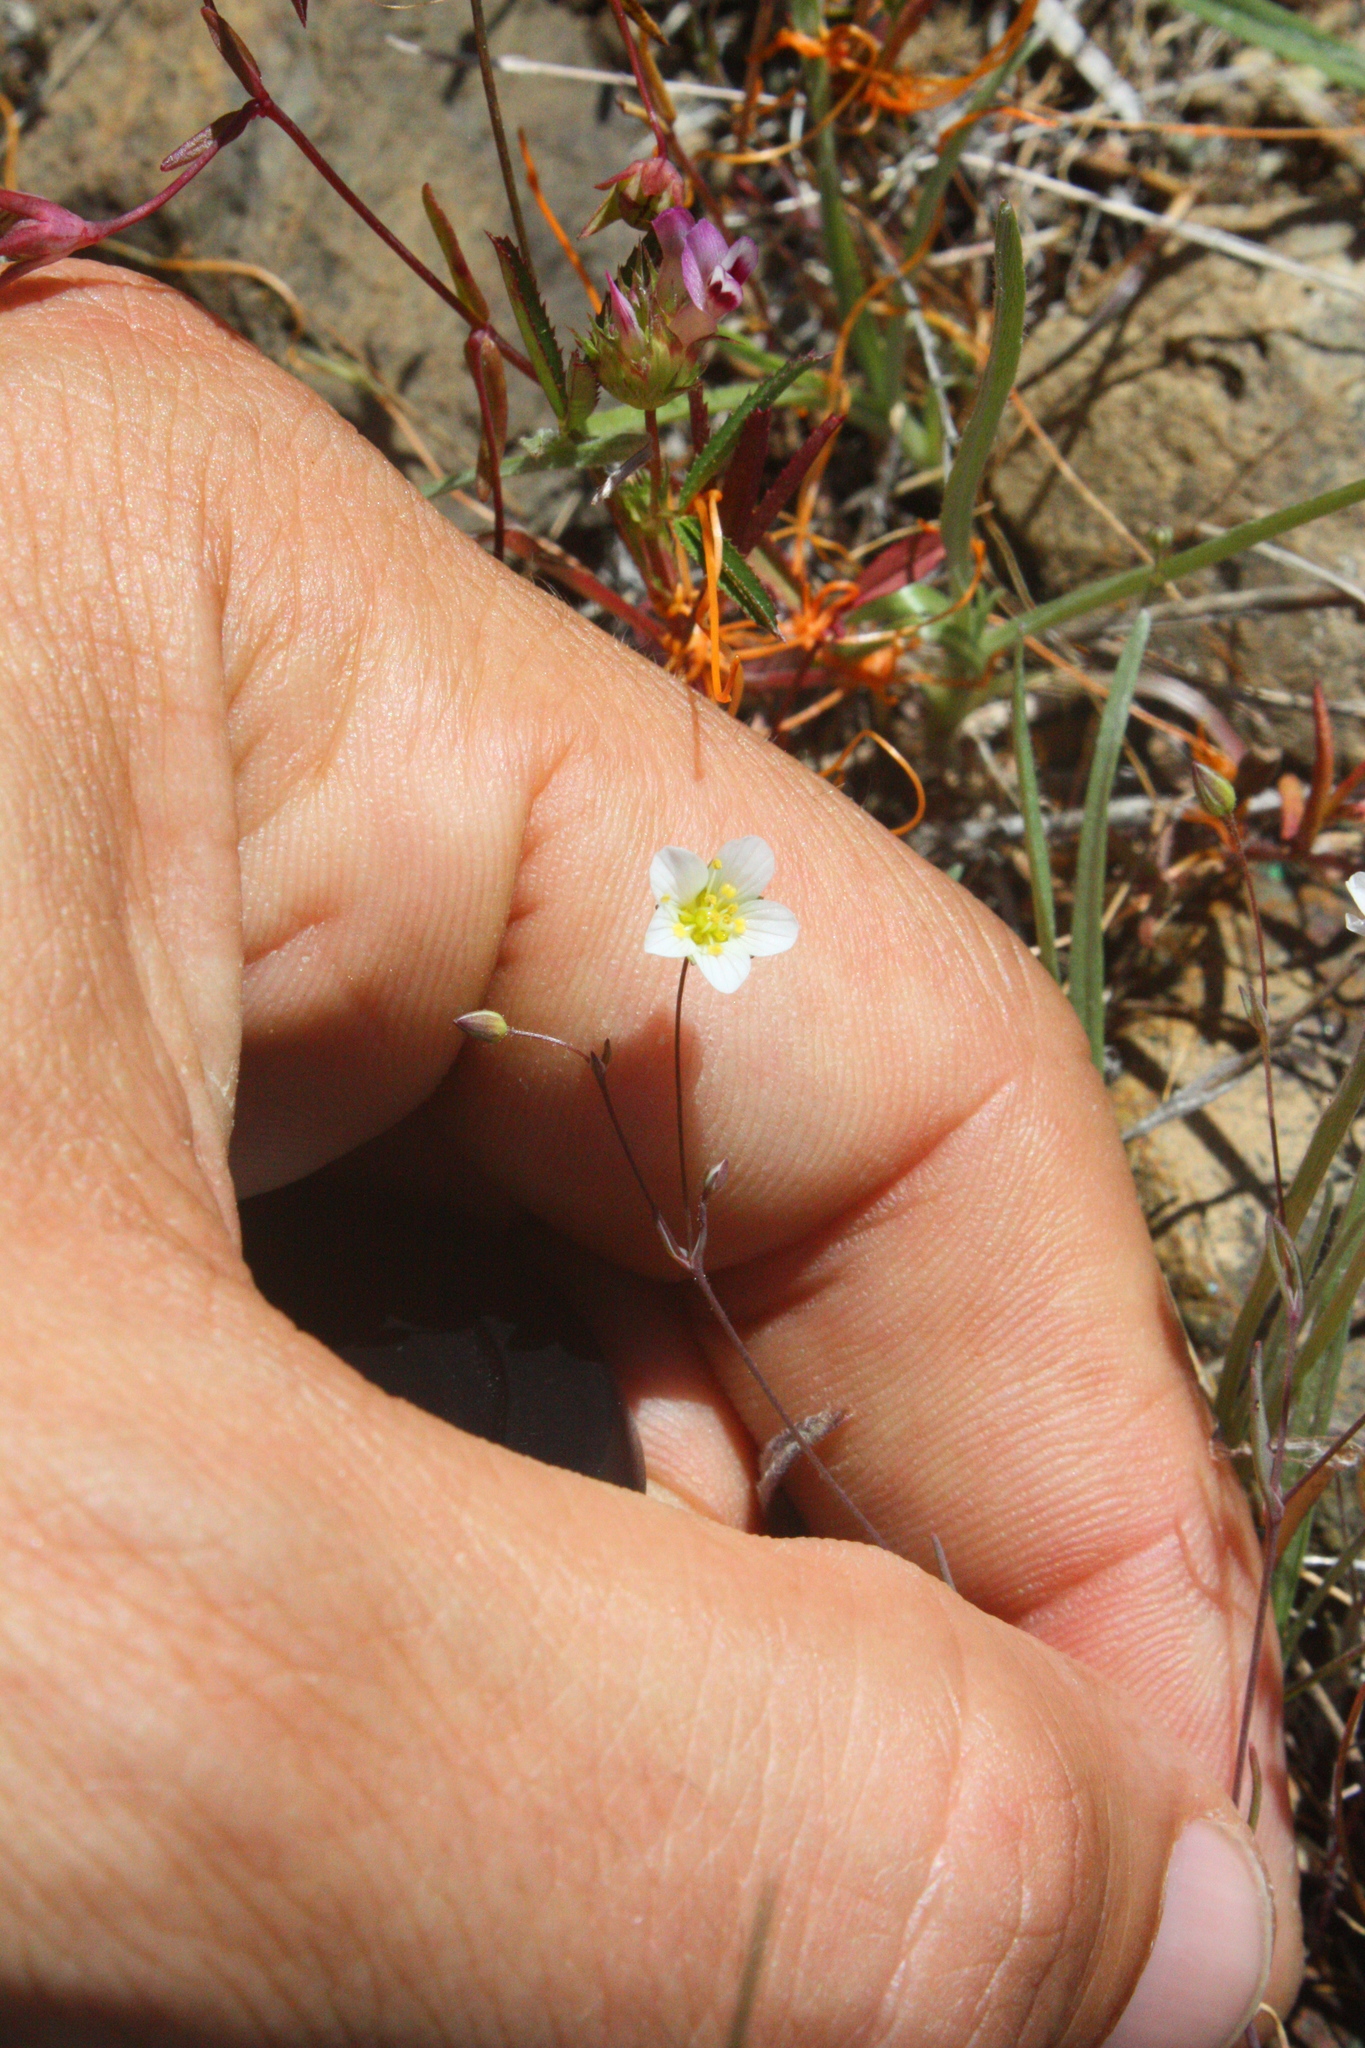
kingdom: Plantae
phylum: Tracheophyta
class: Magnoliopsida
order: Caryophyllales
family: Caryophyllaceae
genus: Sabulina
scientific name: Sabulina douglasii
